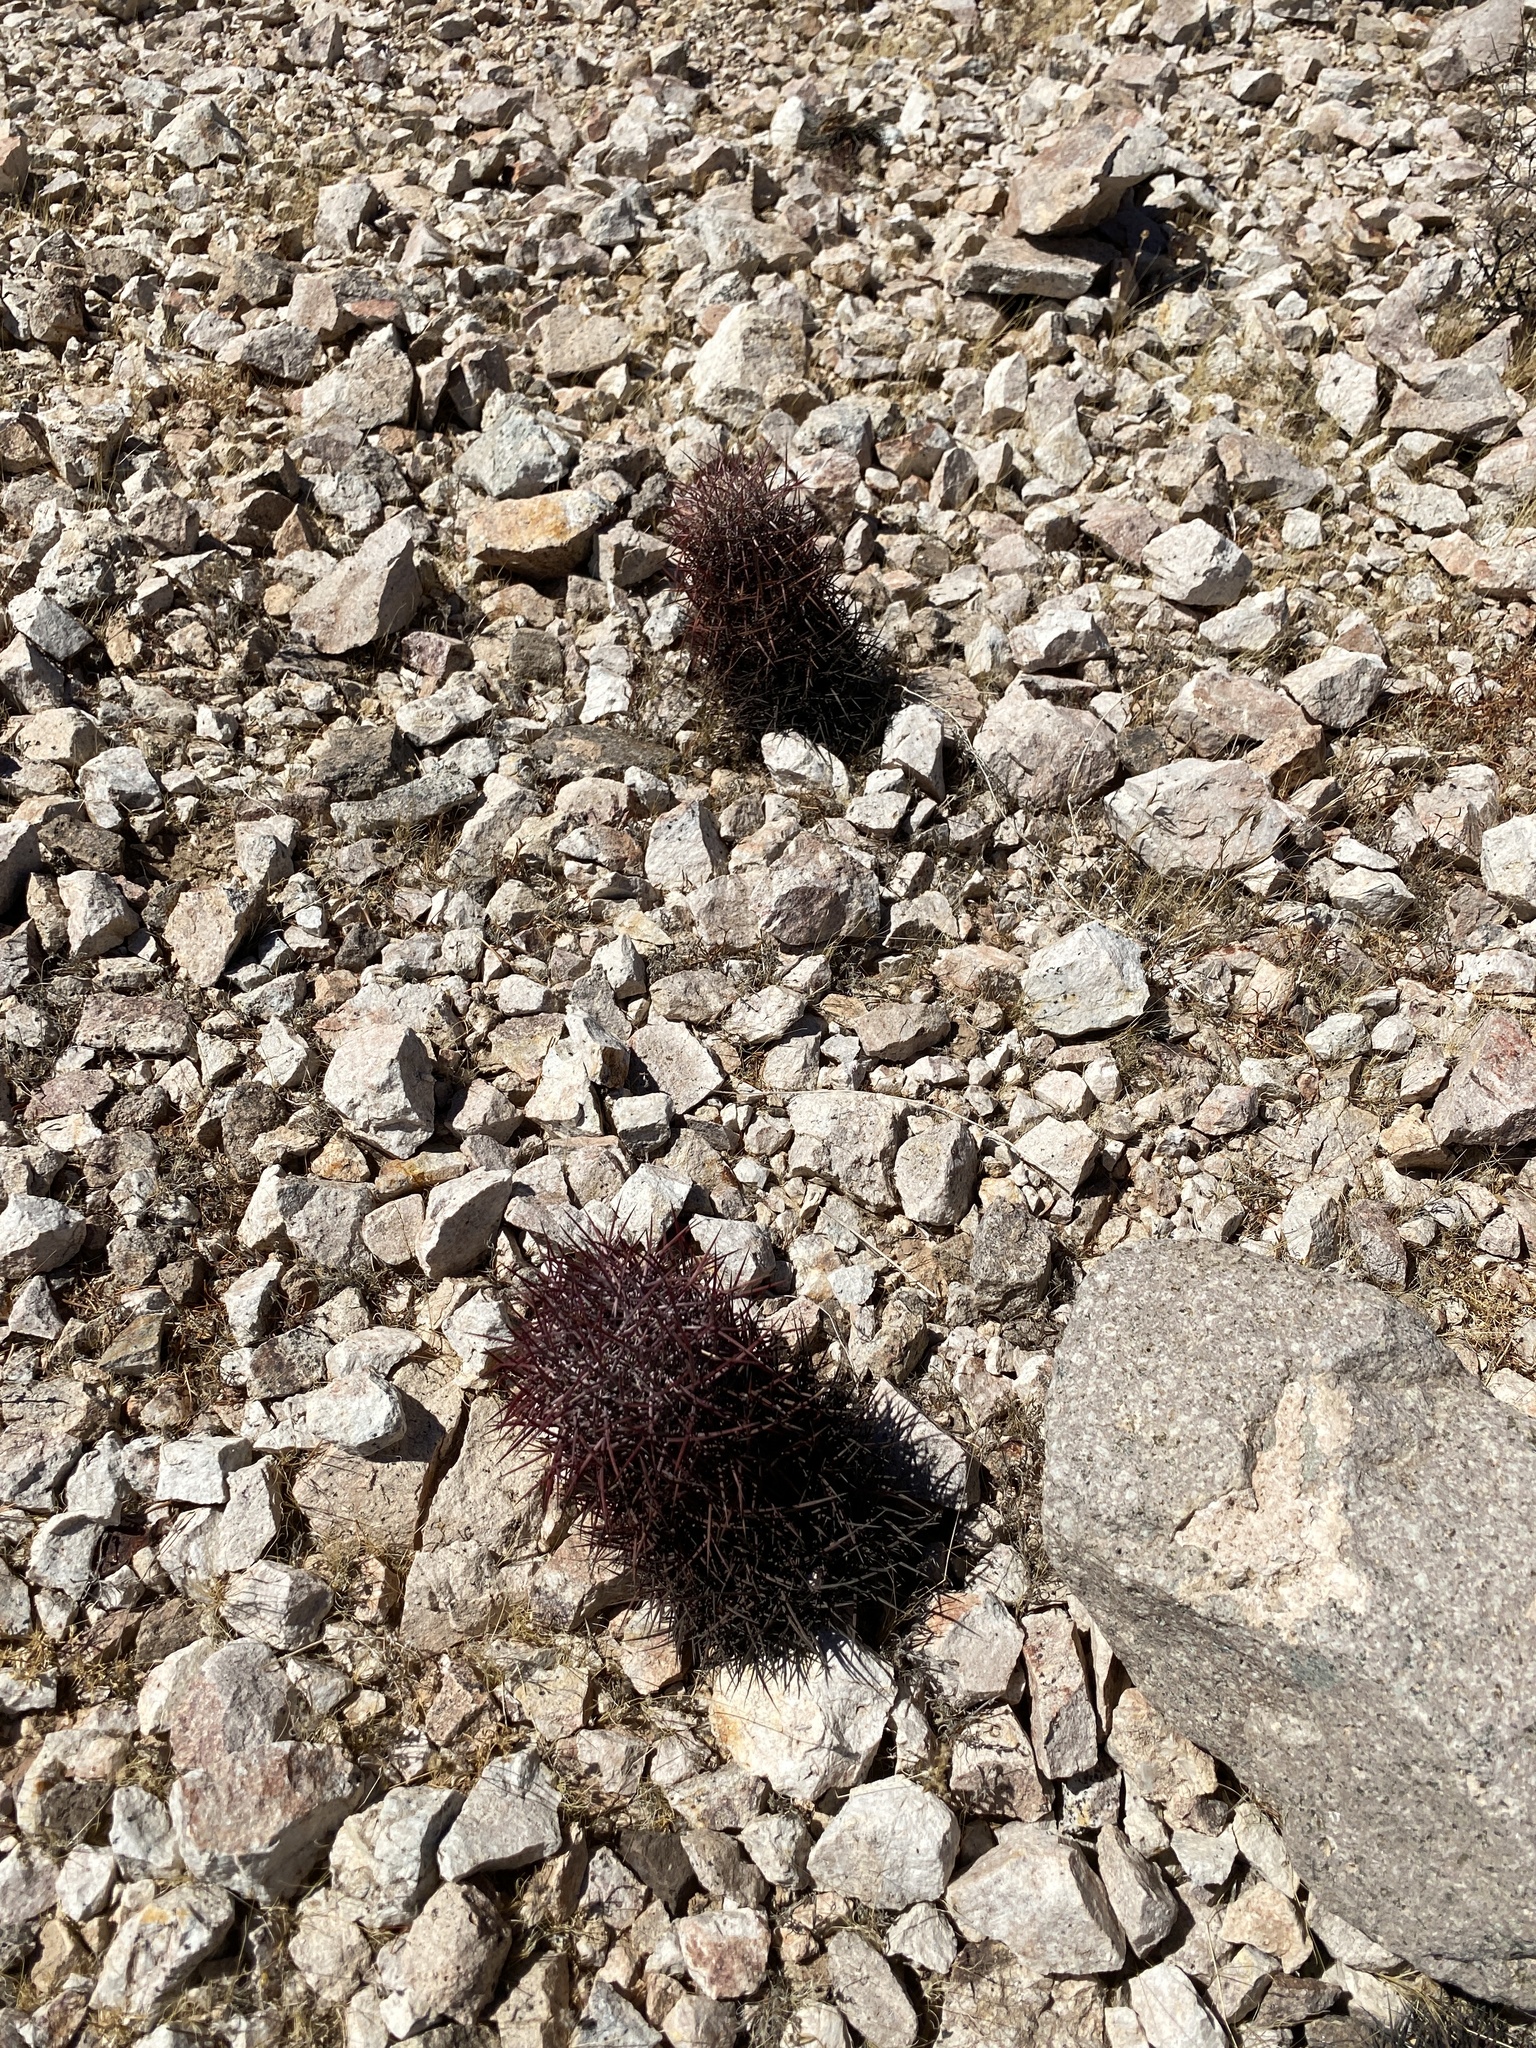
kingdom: Plantae
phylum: Tracheophyta
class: Magnoliopsida
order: Caryophyllales
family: Cactaceae
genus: Sclerocactus
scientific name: Sclerocactus johnsonii
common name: Eight-spine fishhook cactus
